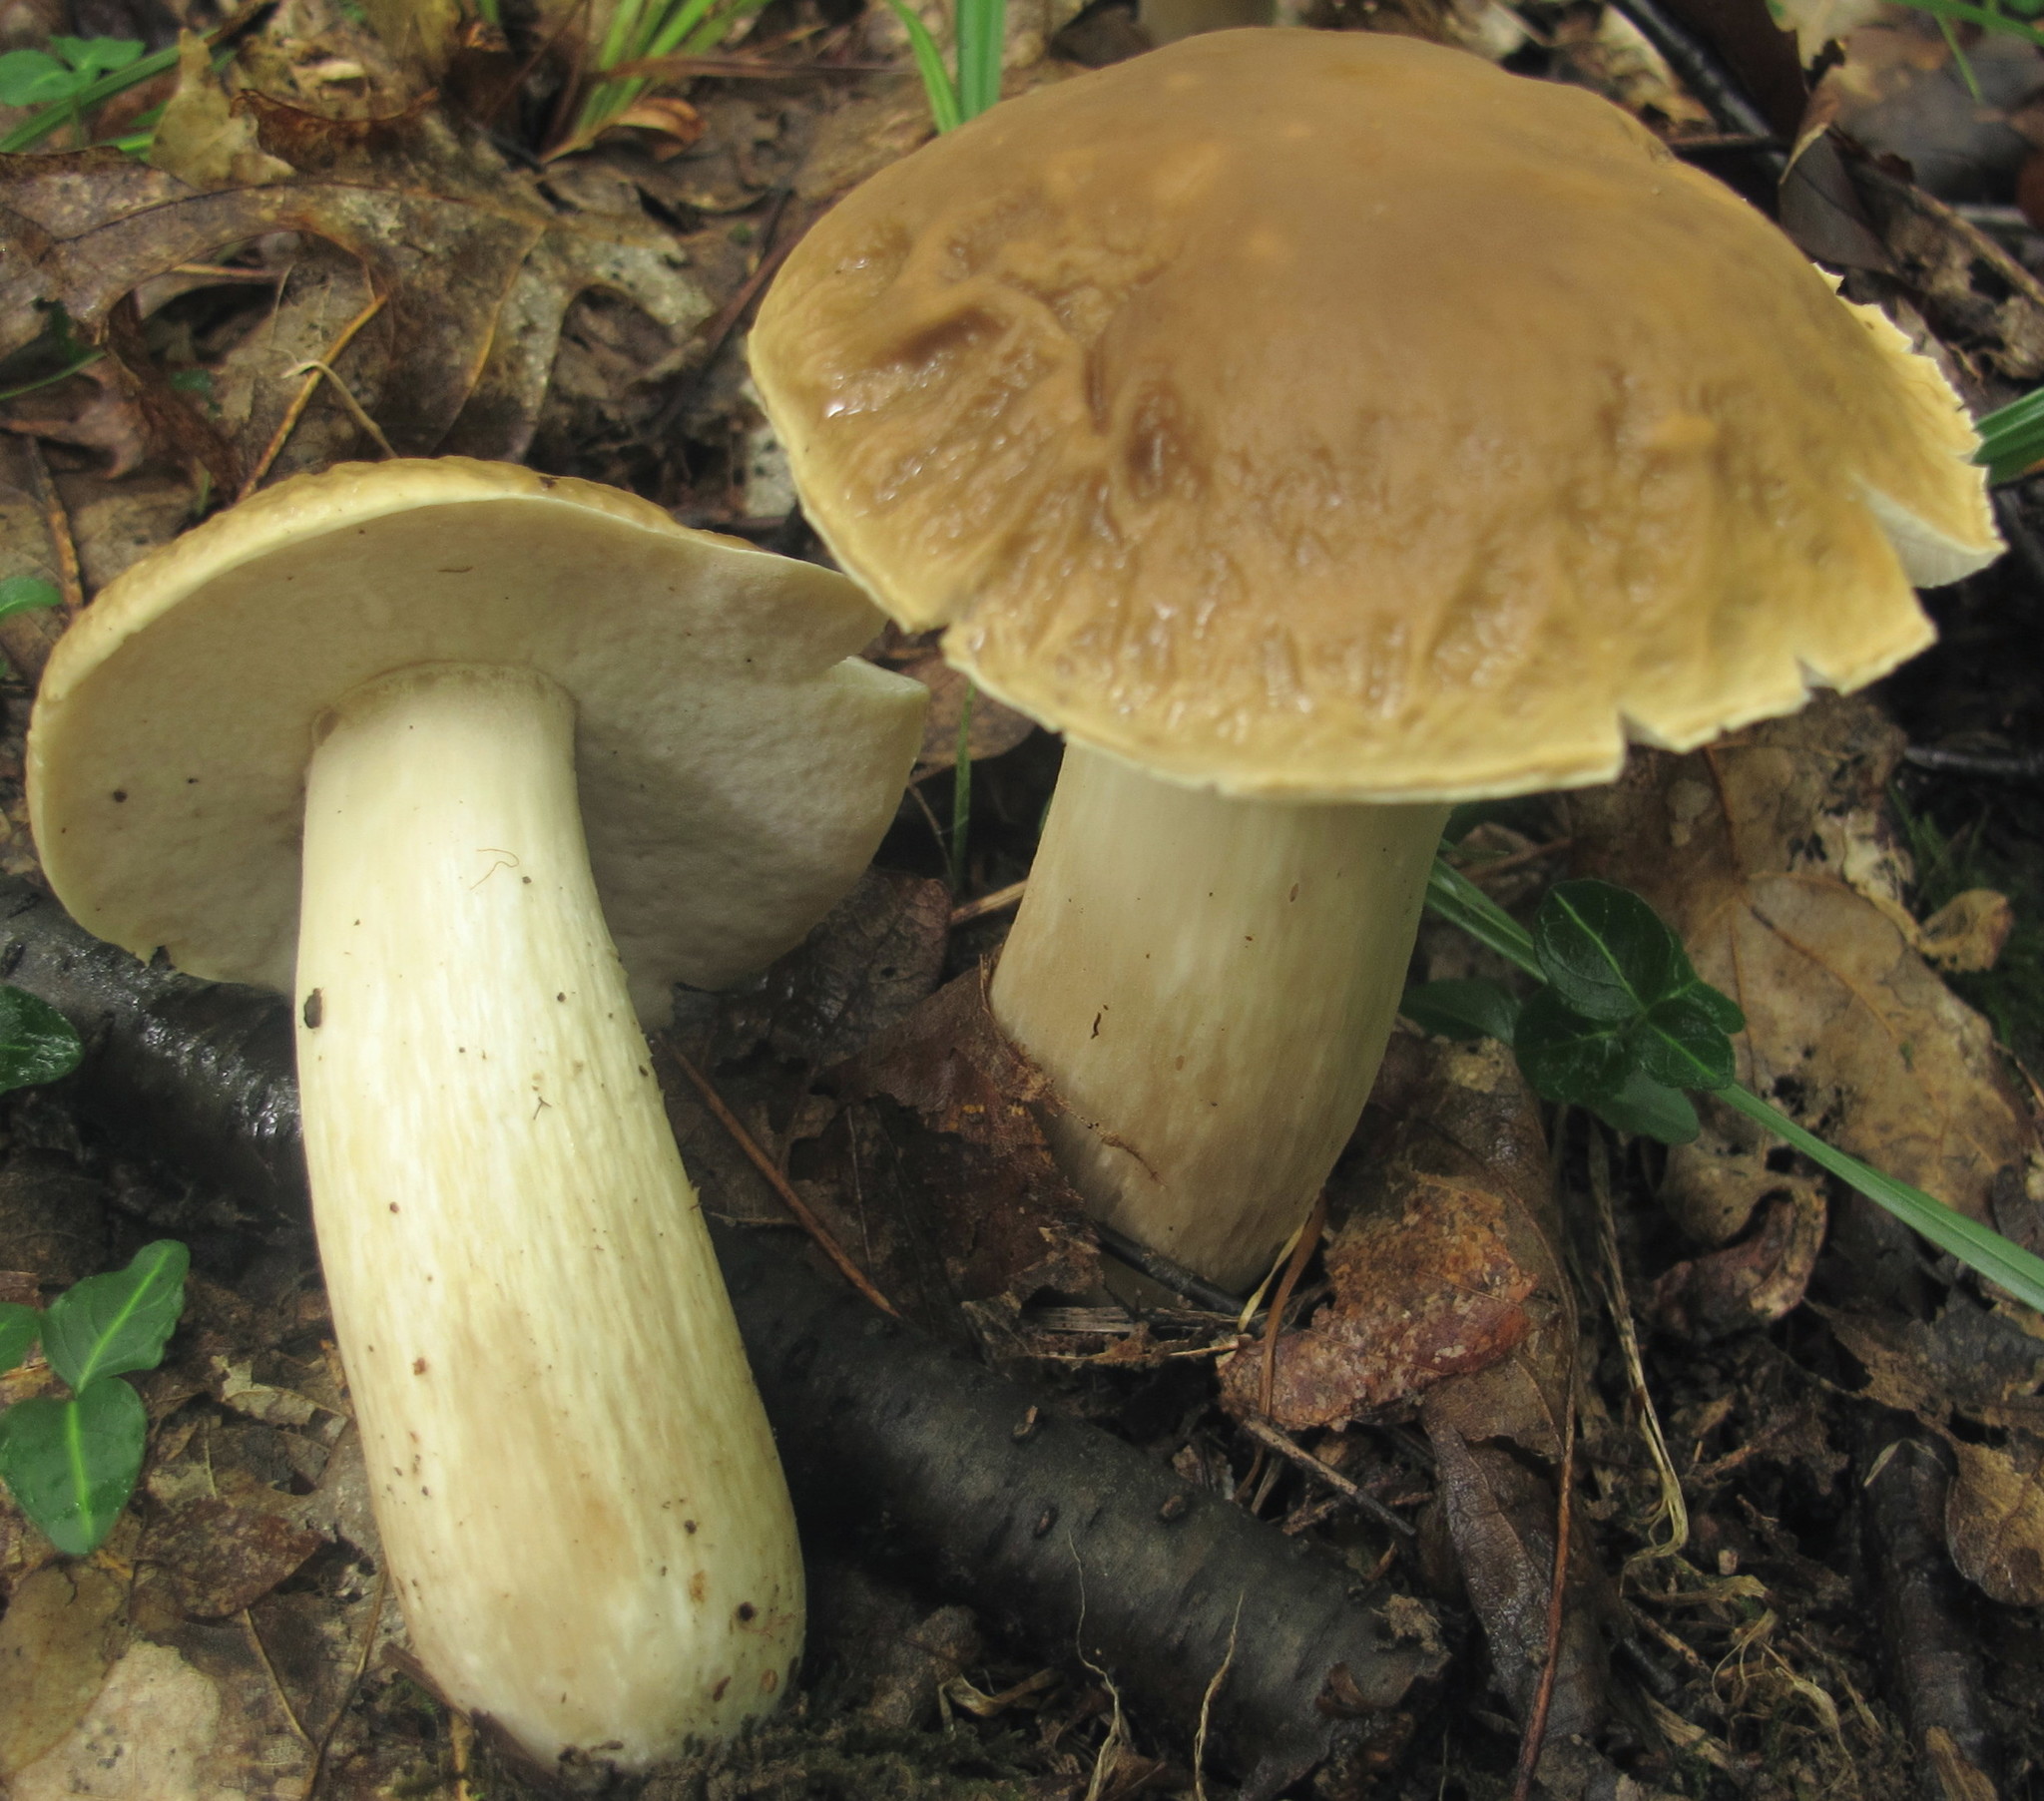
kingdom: Fungi
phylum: Basidiomycota
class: Agaricomycetes
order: Boletales
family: Boletaceae
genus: Boletus
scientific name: Boletus nobilis
